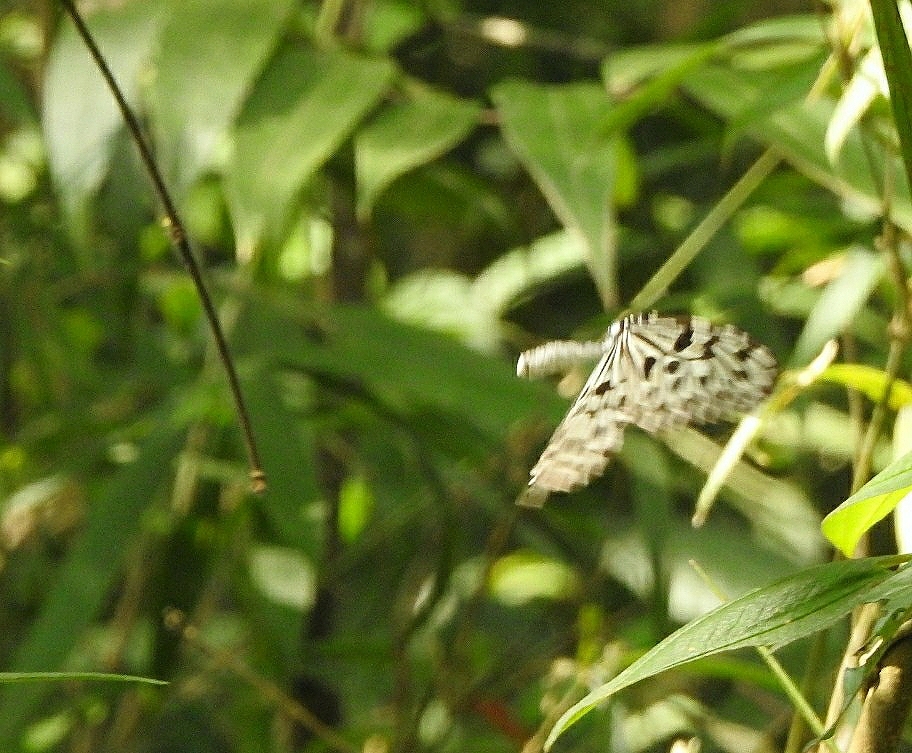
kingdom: Animalia
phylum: Arthropoda
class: Insecta
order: Lepidoptera
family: Nymphalidae
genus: Idea
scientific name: Idea malabarica
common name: Malabar tree-nymph
